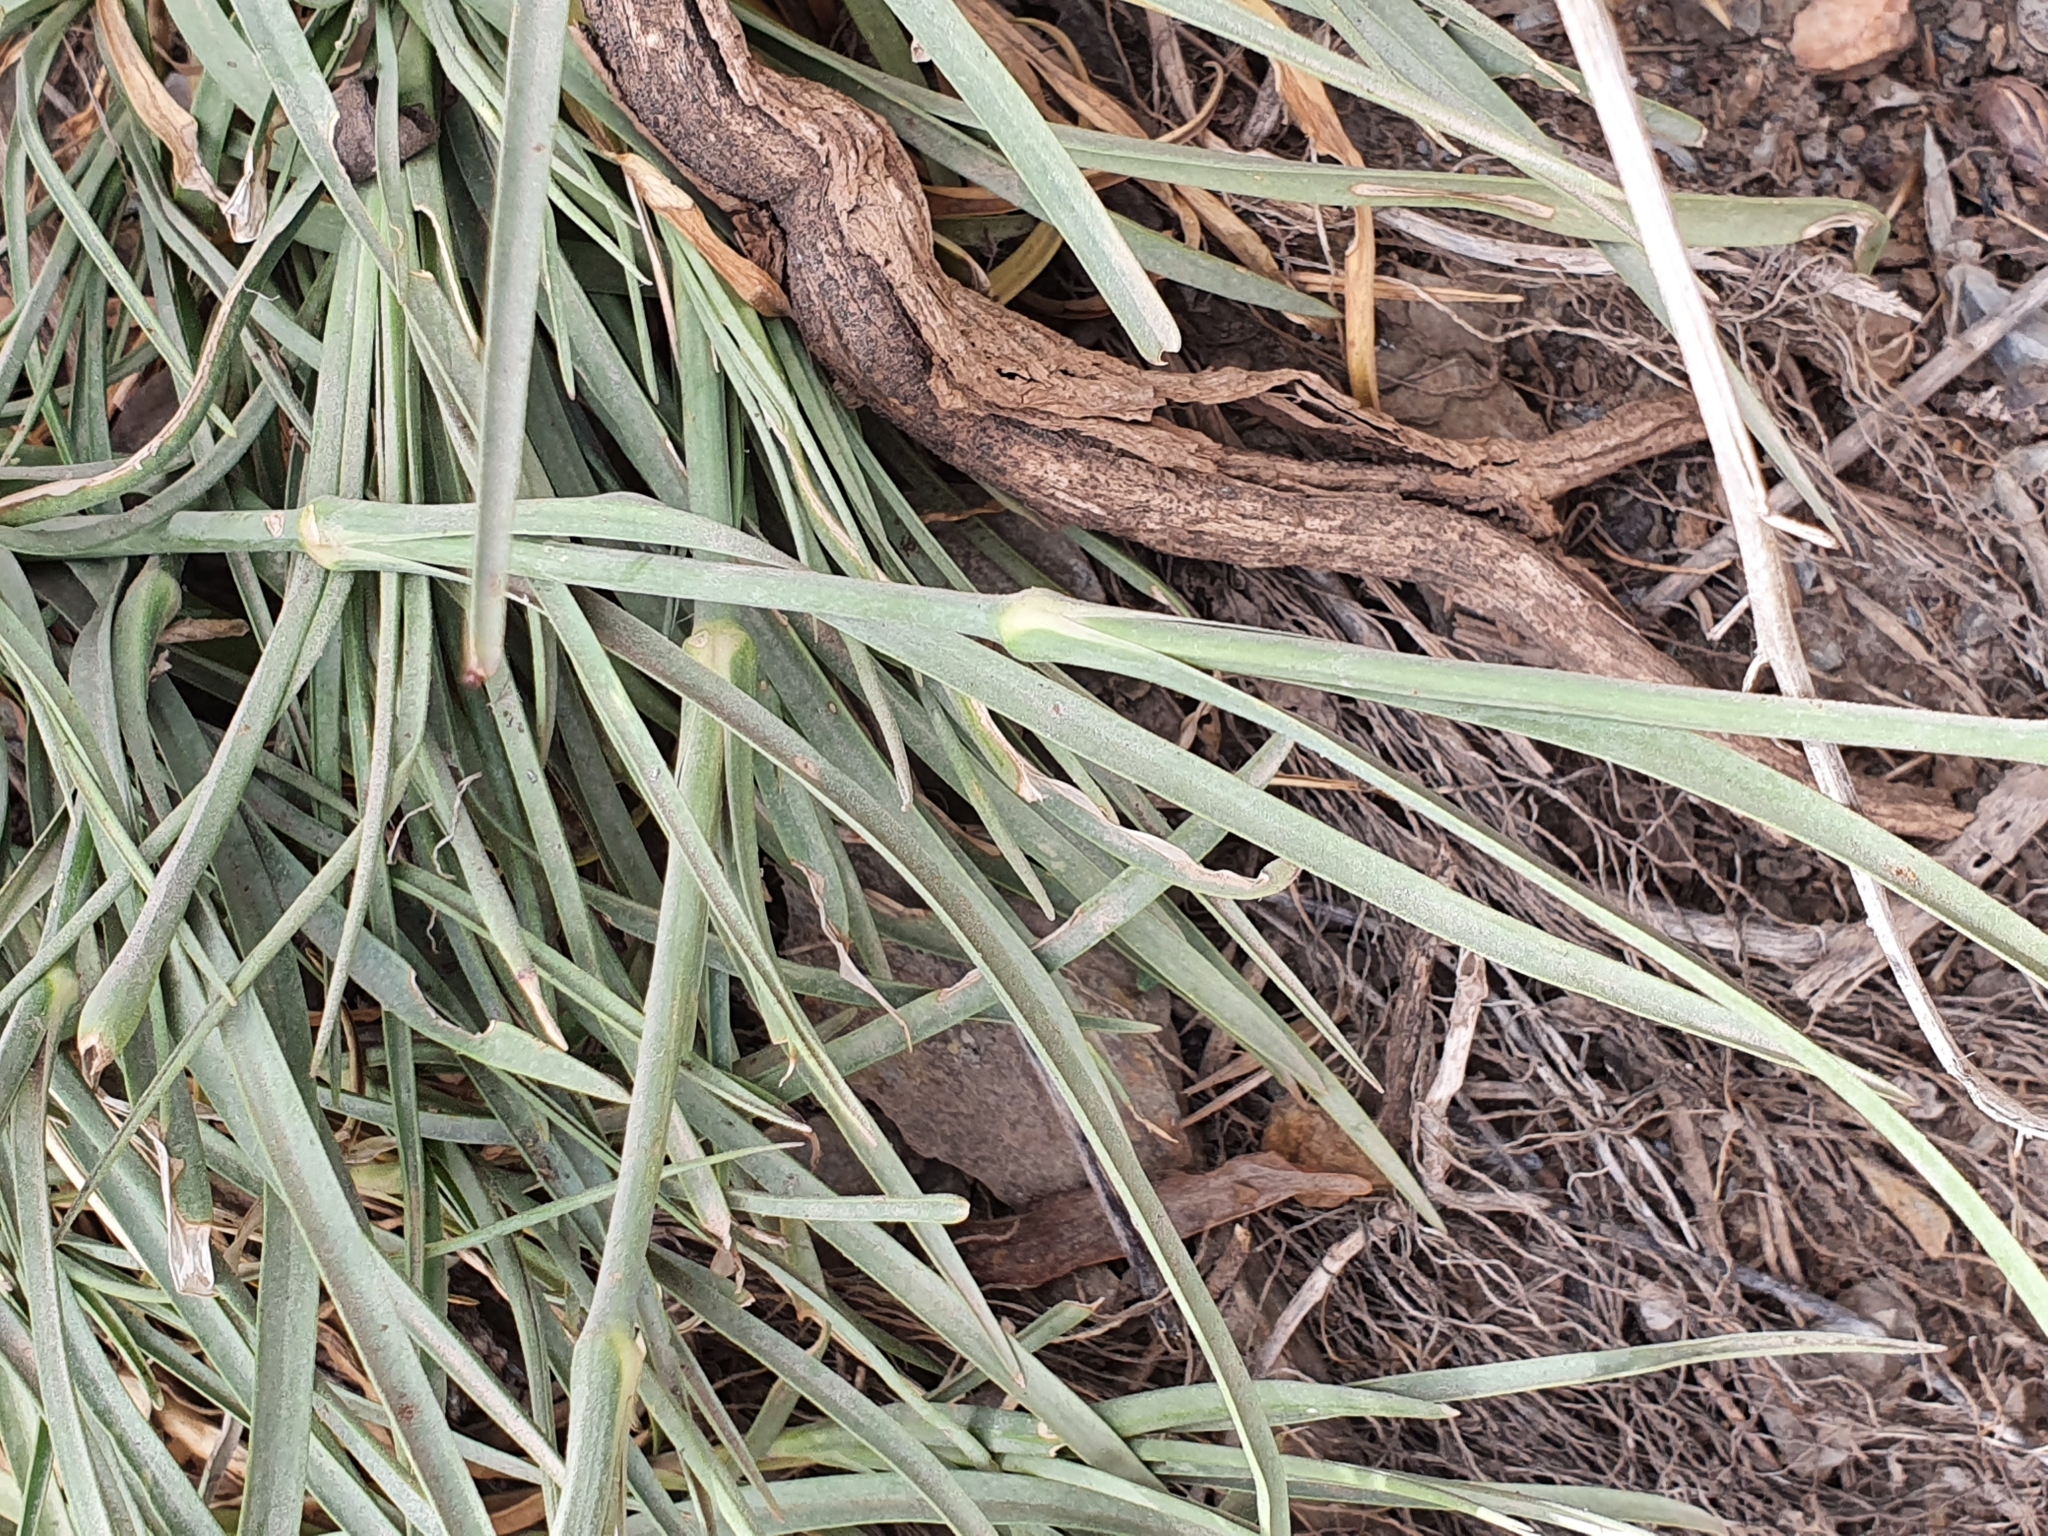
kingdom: Plantae
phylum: Tracheophyta
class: Magnoliopsida
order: Caryophyllales
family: Caryophyllaceae
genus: Dianthus
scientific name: Dianthus sylvestris
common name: Wood pink
